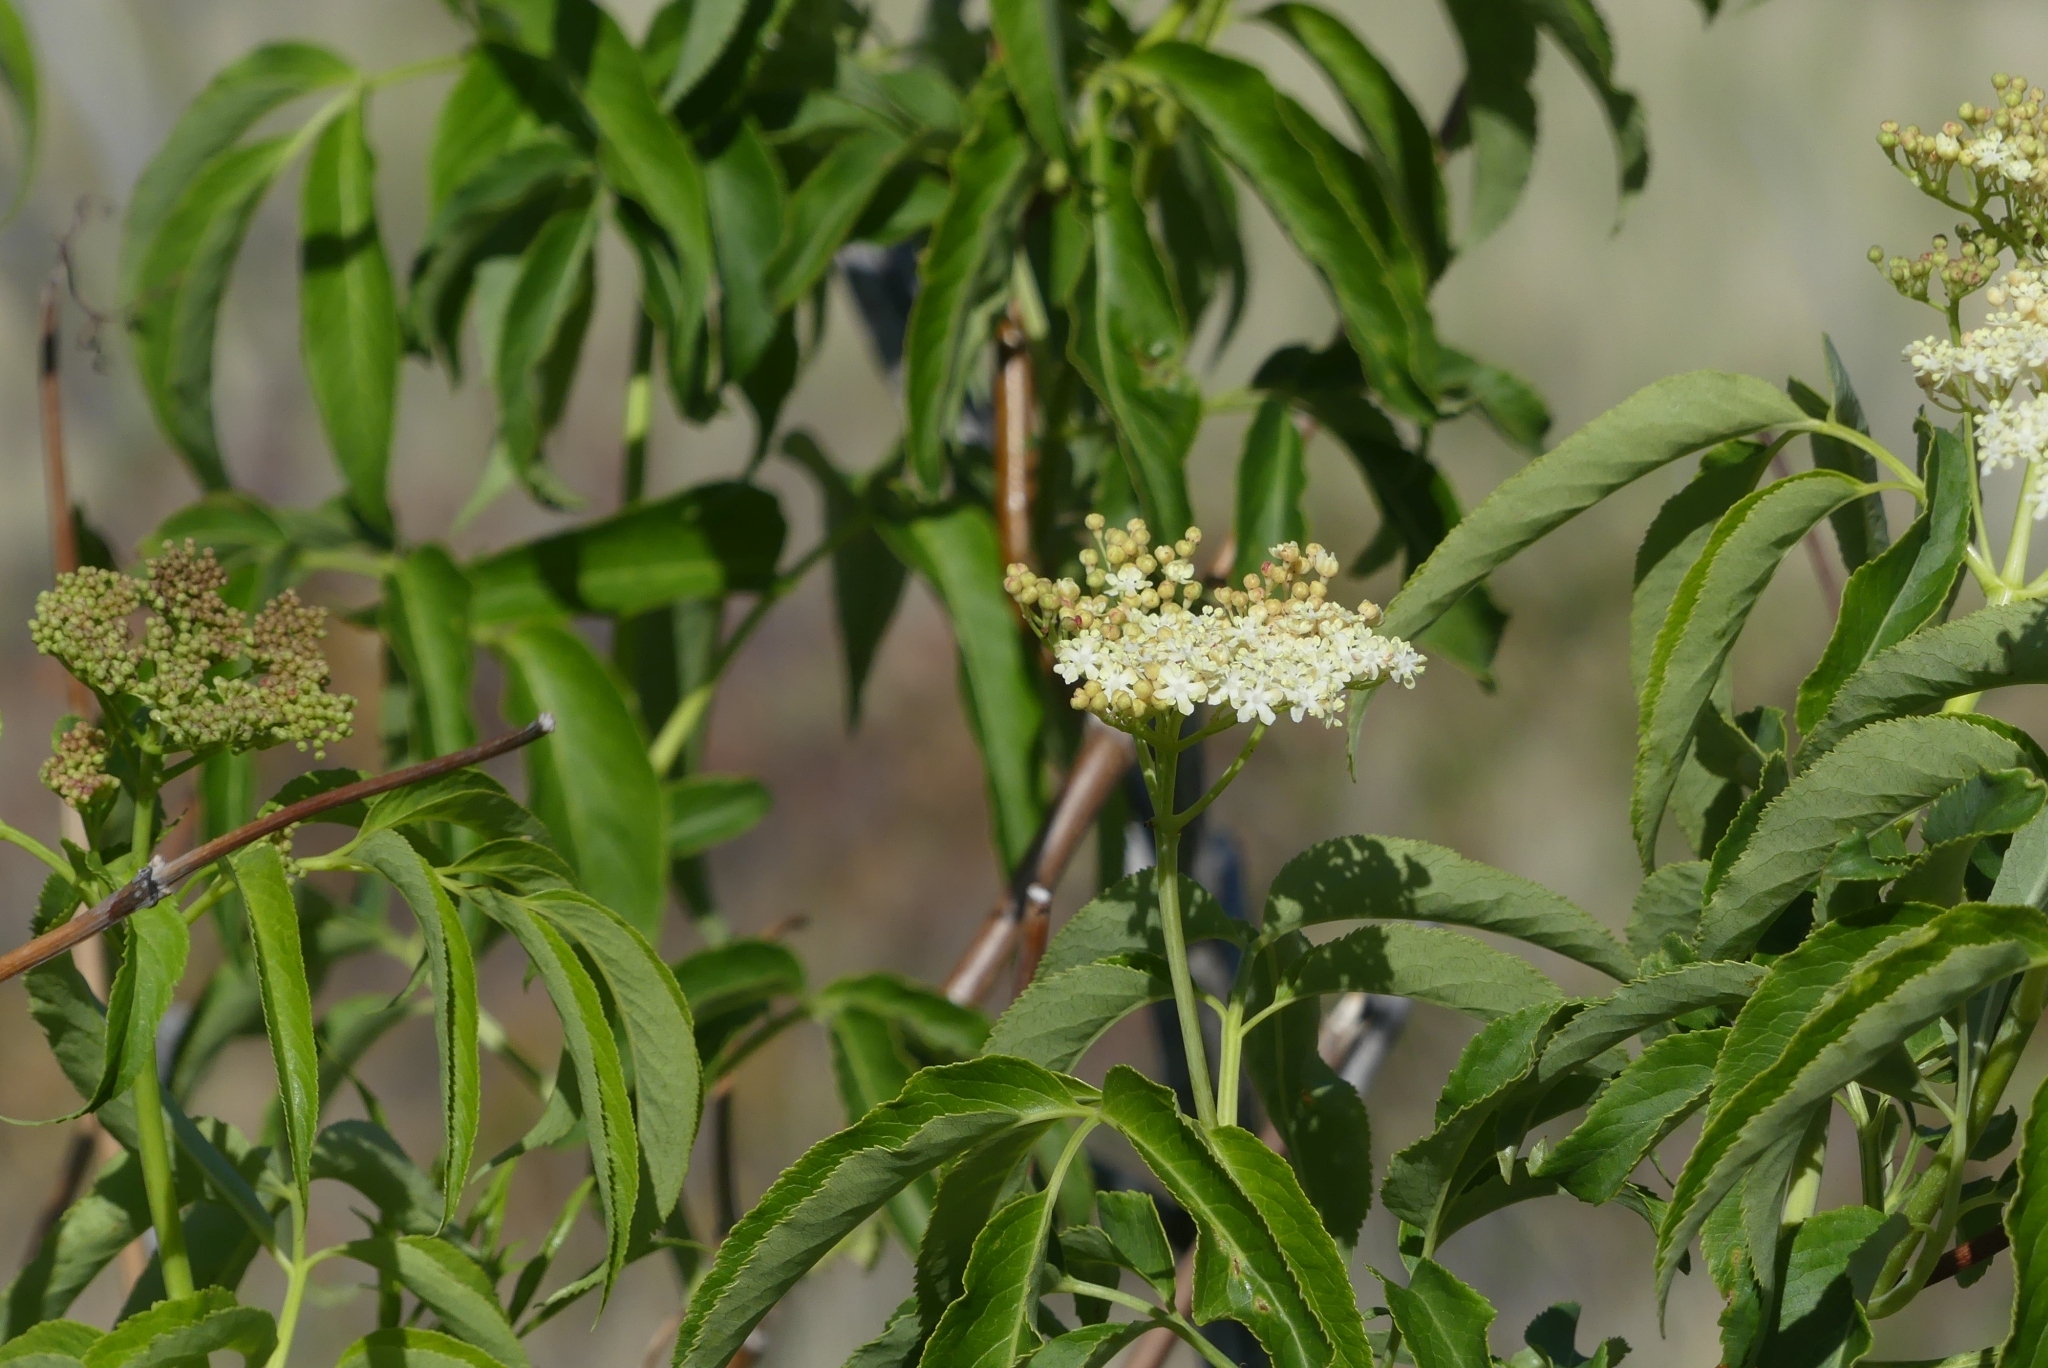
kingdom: Plantae
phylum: Tracheophyta
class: Magnoliopsida
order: Dipsacales
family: Viburnaceae
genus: Sambucus
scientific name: Sambucus cerulea
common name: Blue elder
